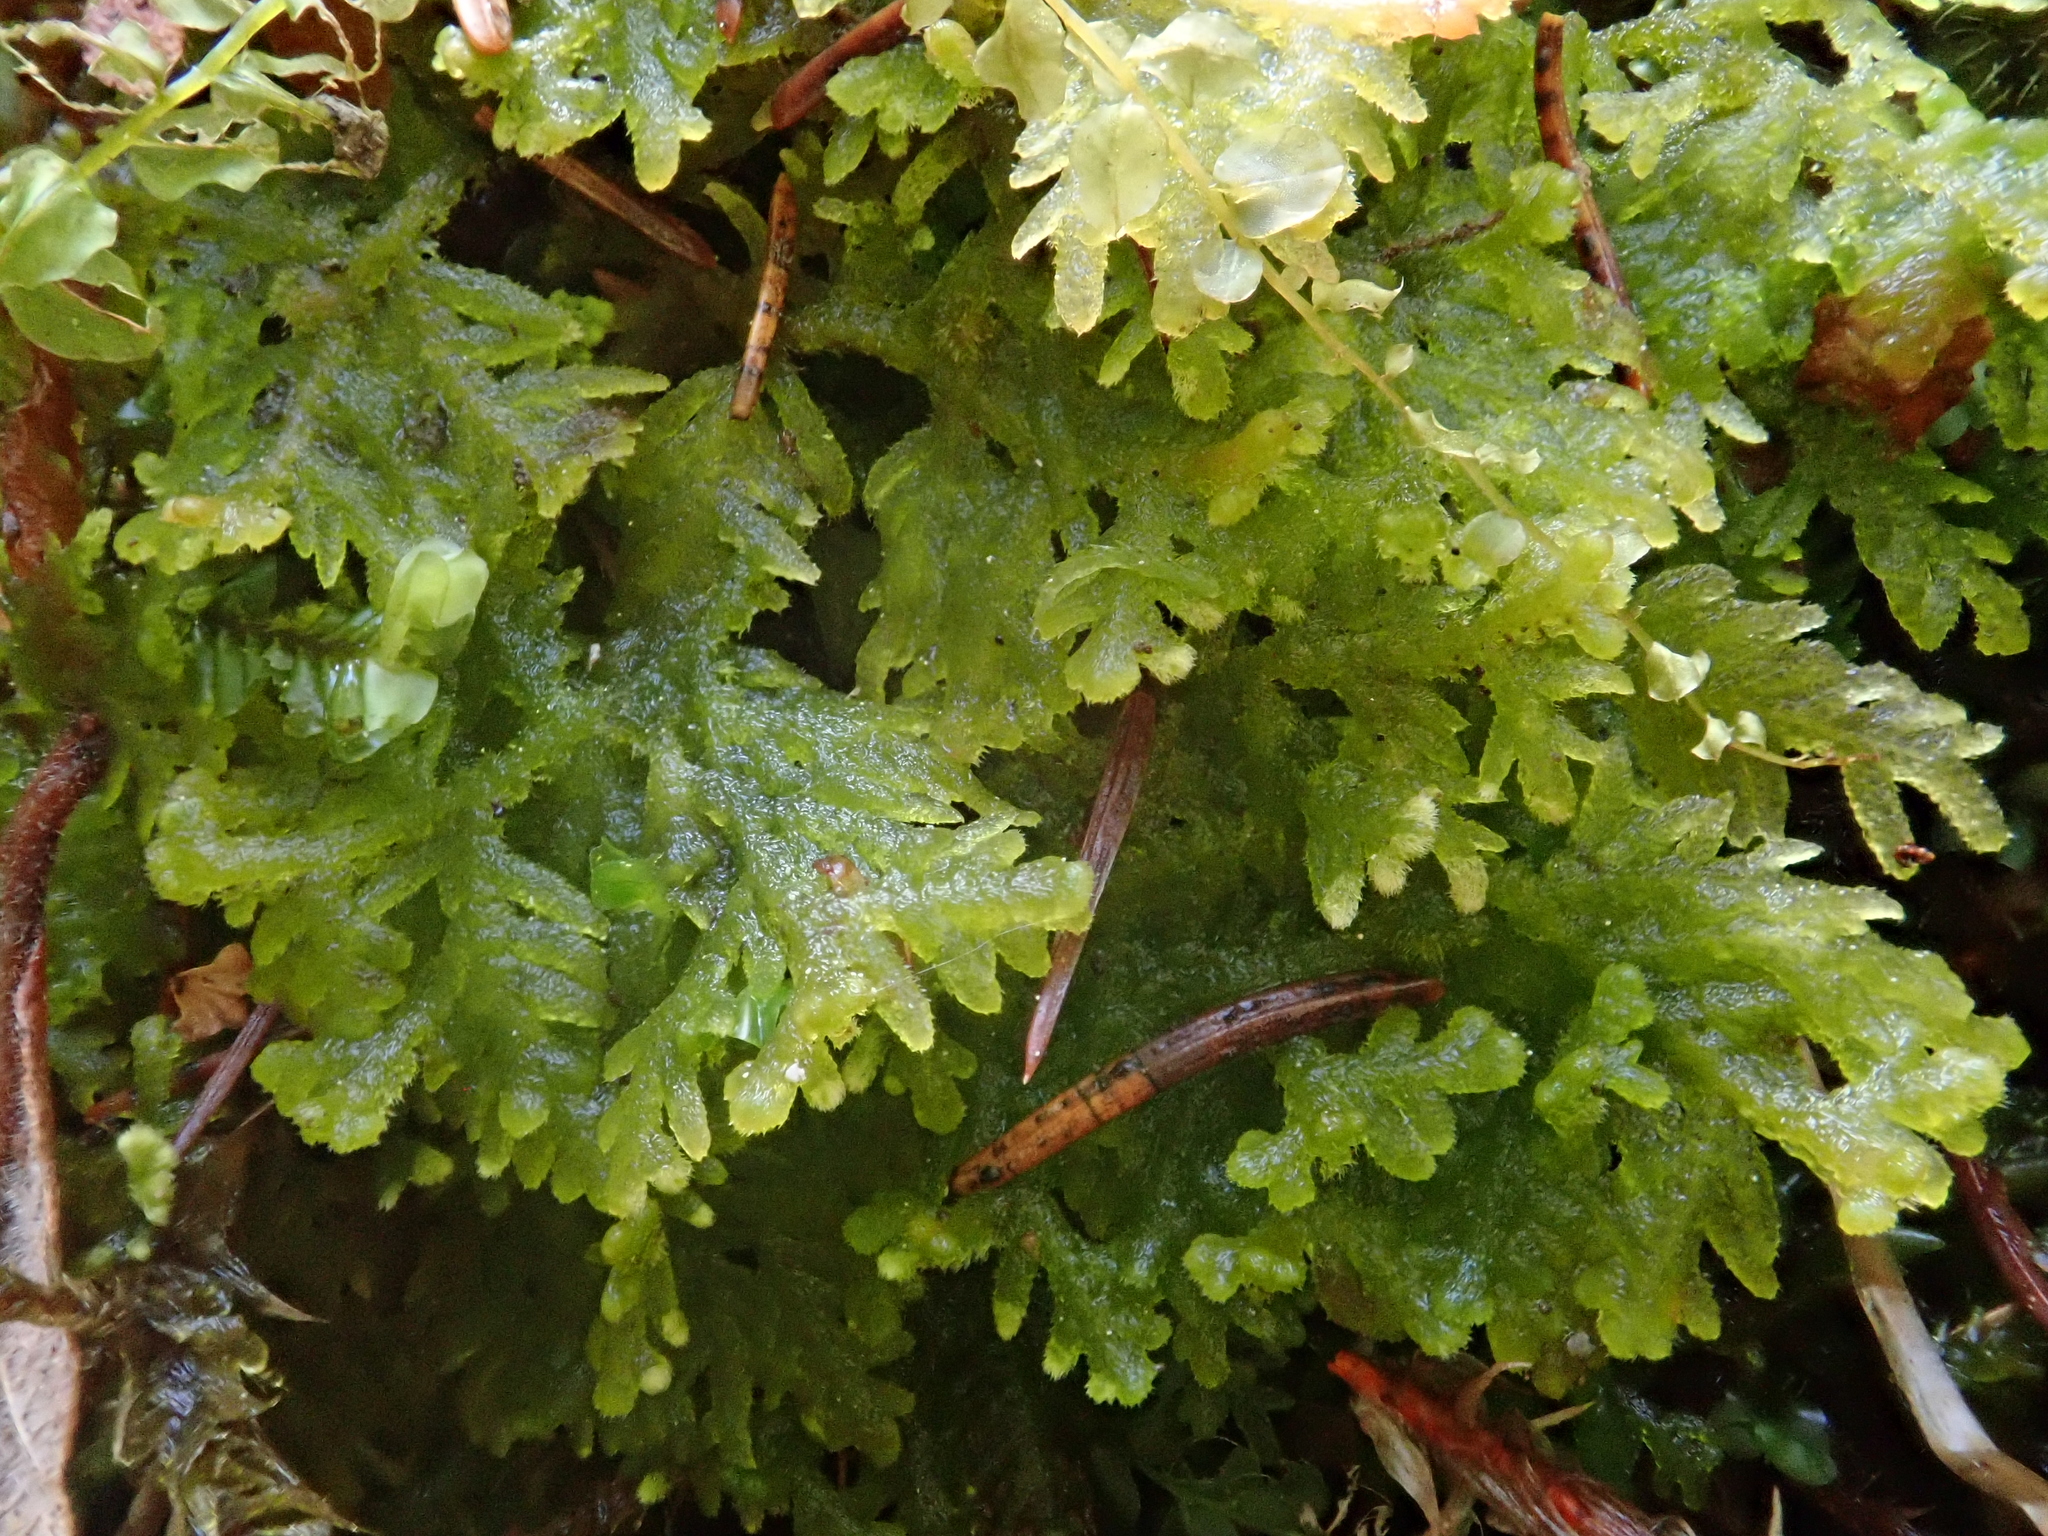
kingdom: Plantae
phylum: Marchantiophyta
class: Jungermanniopsida
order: Jungermanniales
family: Trichocoleaceae
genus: Trichocolea
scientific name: Trichocolea tomentella
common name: Woolly liverwort
